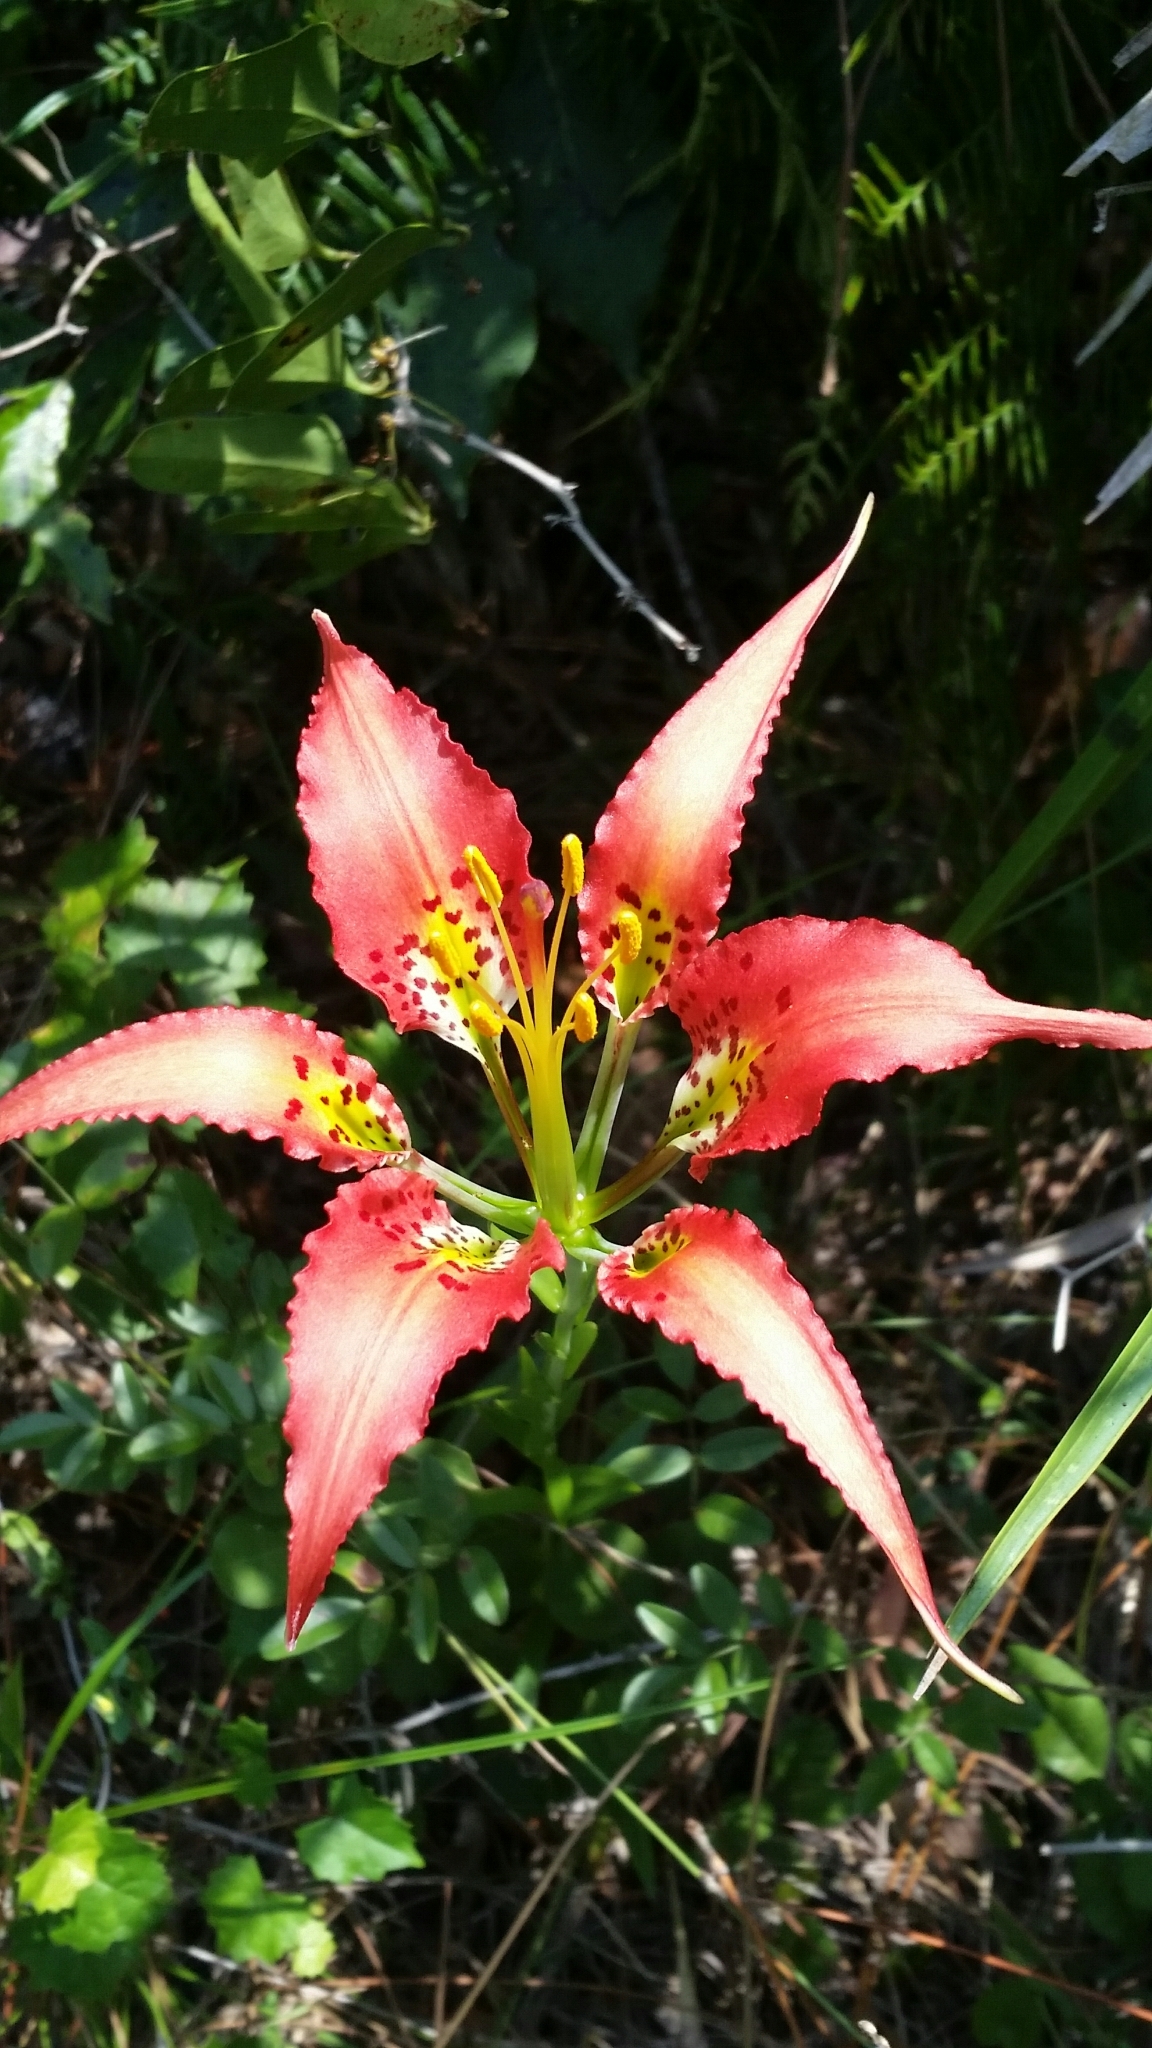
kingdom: Plantae
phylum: Tracheophyta
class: Liliopsida
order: Liliales
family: Liliaceae
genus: Lilium
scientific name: Lilium catesbaei
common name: Catesby's lily
